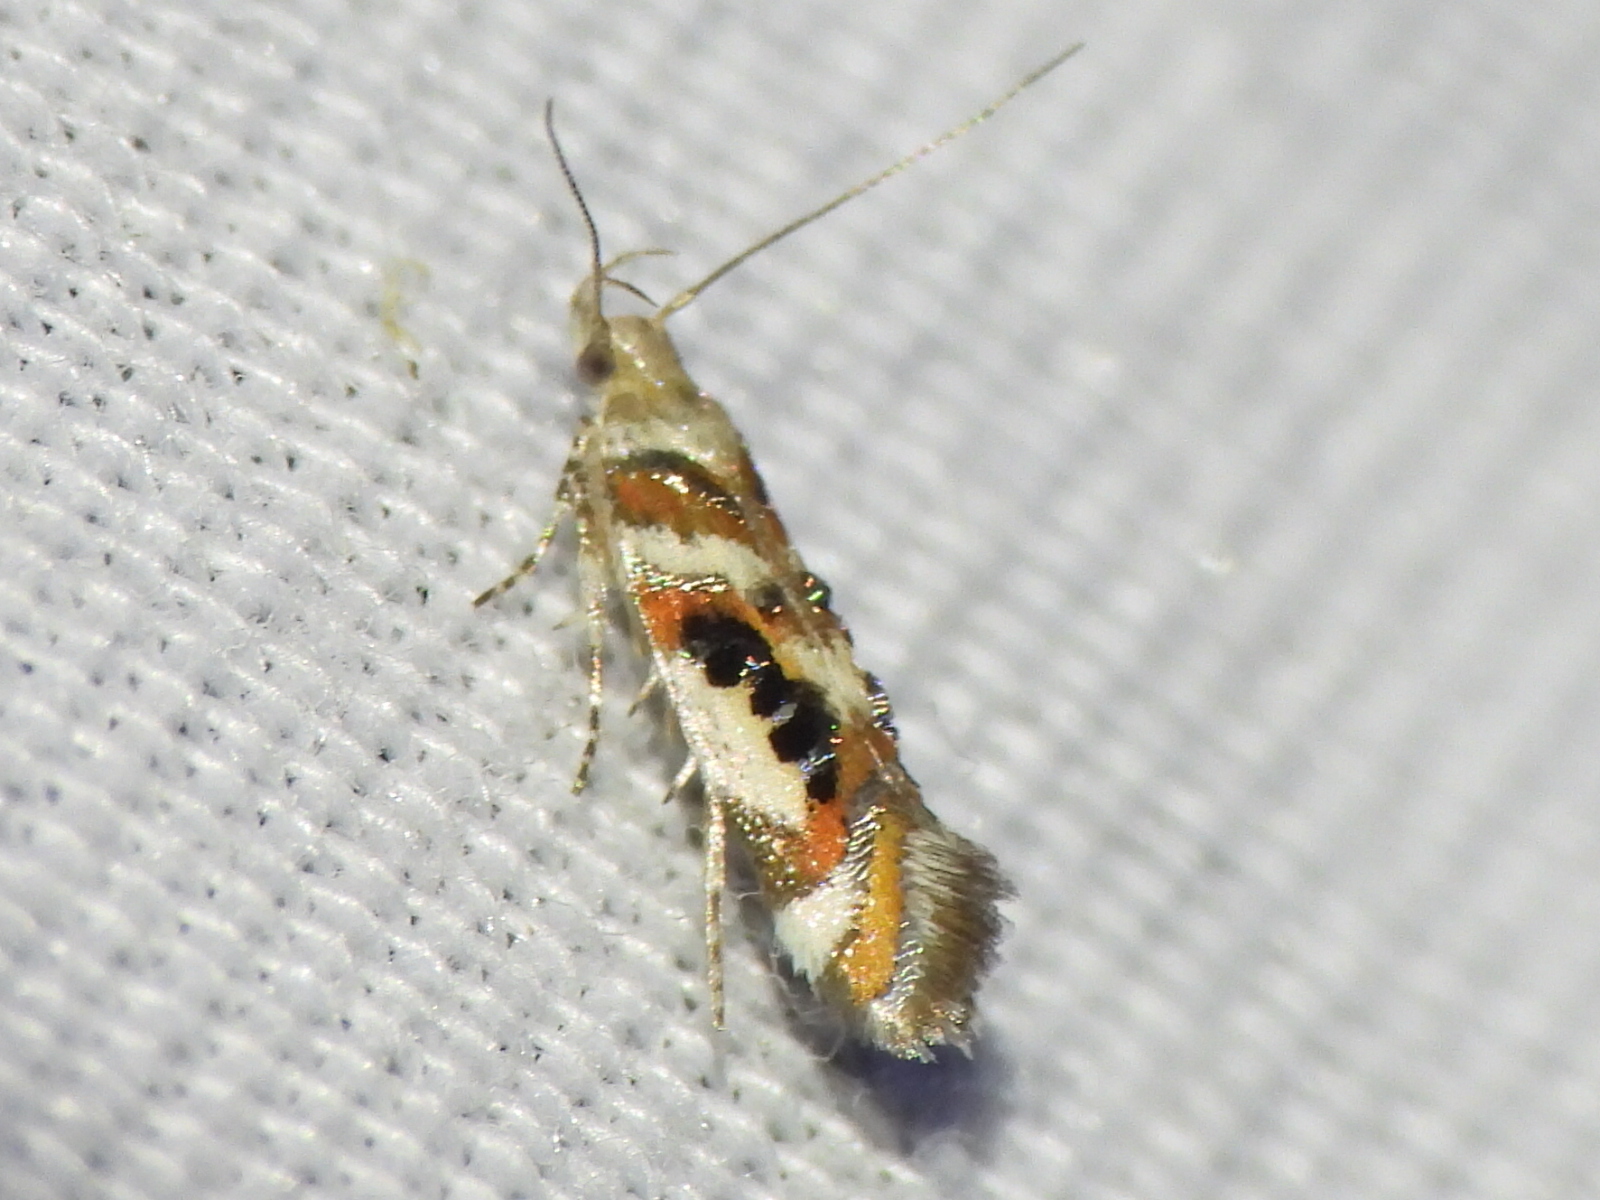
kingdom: Animalia
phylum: Arthropoda
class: Insecta
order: Lepidoptera
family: Gelechiidae
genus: Aristotelia
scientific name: Aristotelia elegantella
